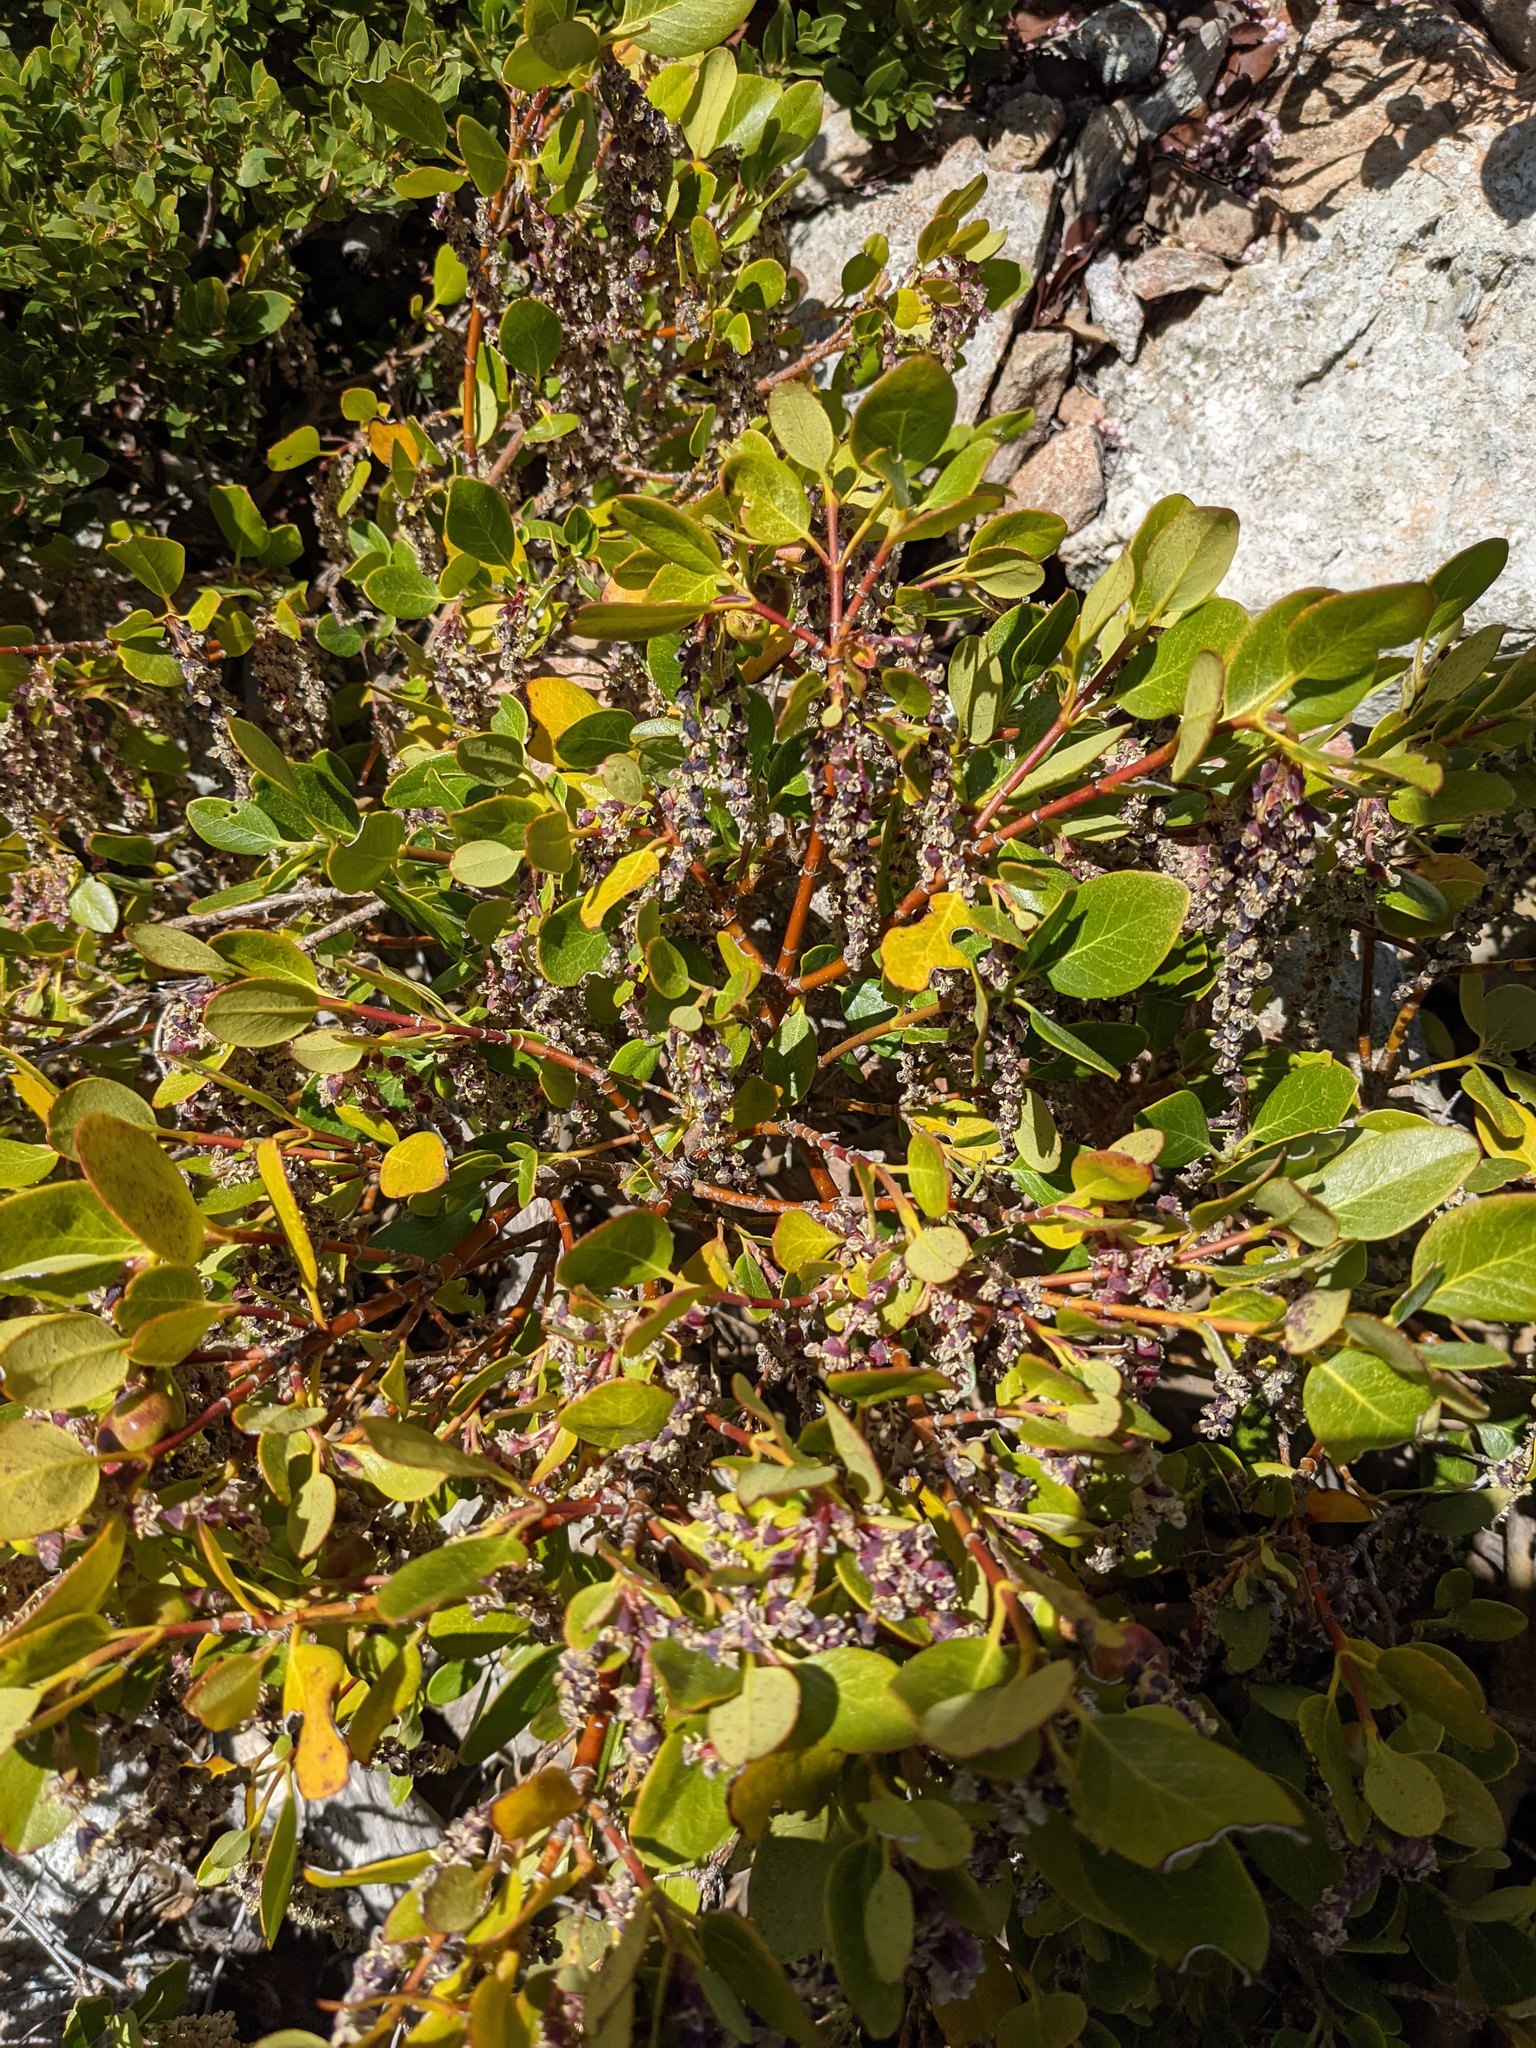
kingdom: Plantae
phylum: Tracheophyta
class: Magnoliopsida
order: Garryales
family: Garryaceae
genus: Garrya
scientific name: Garrya fremontii
